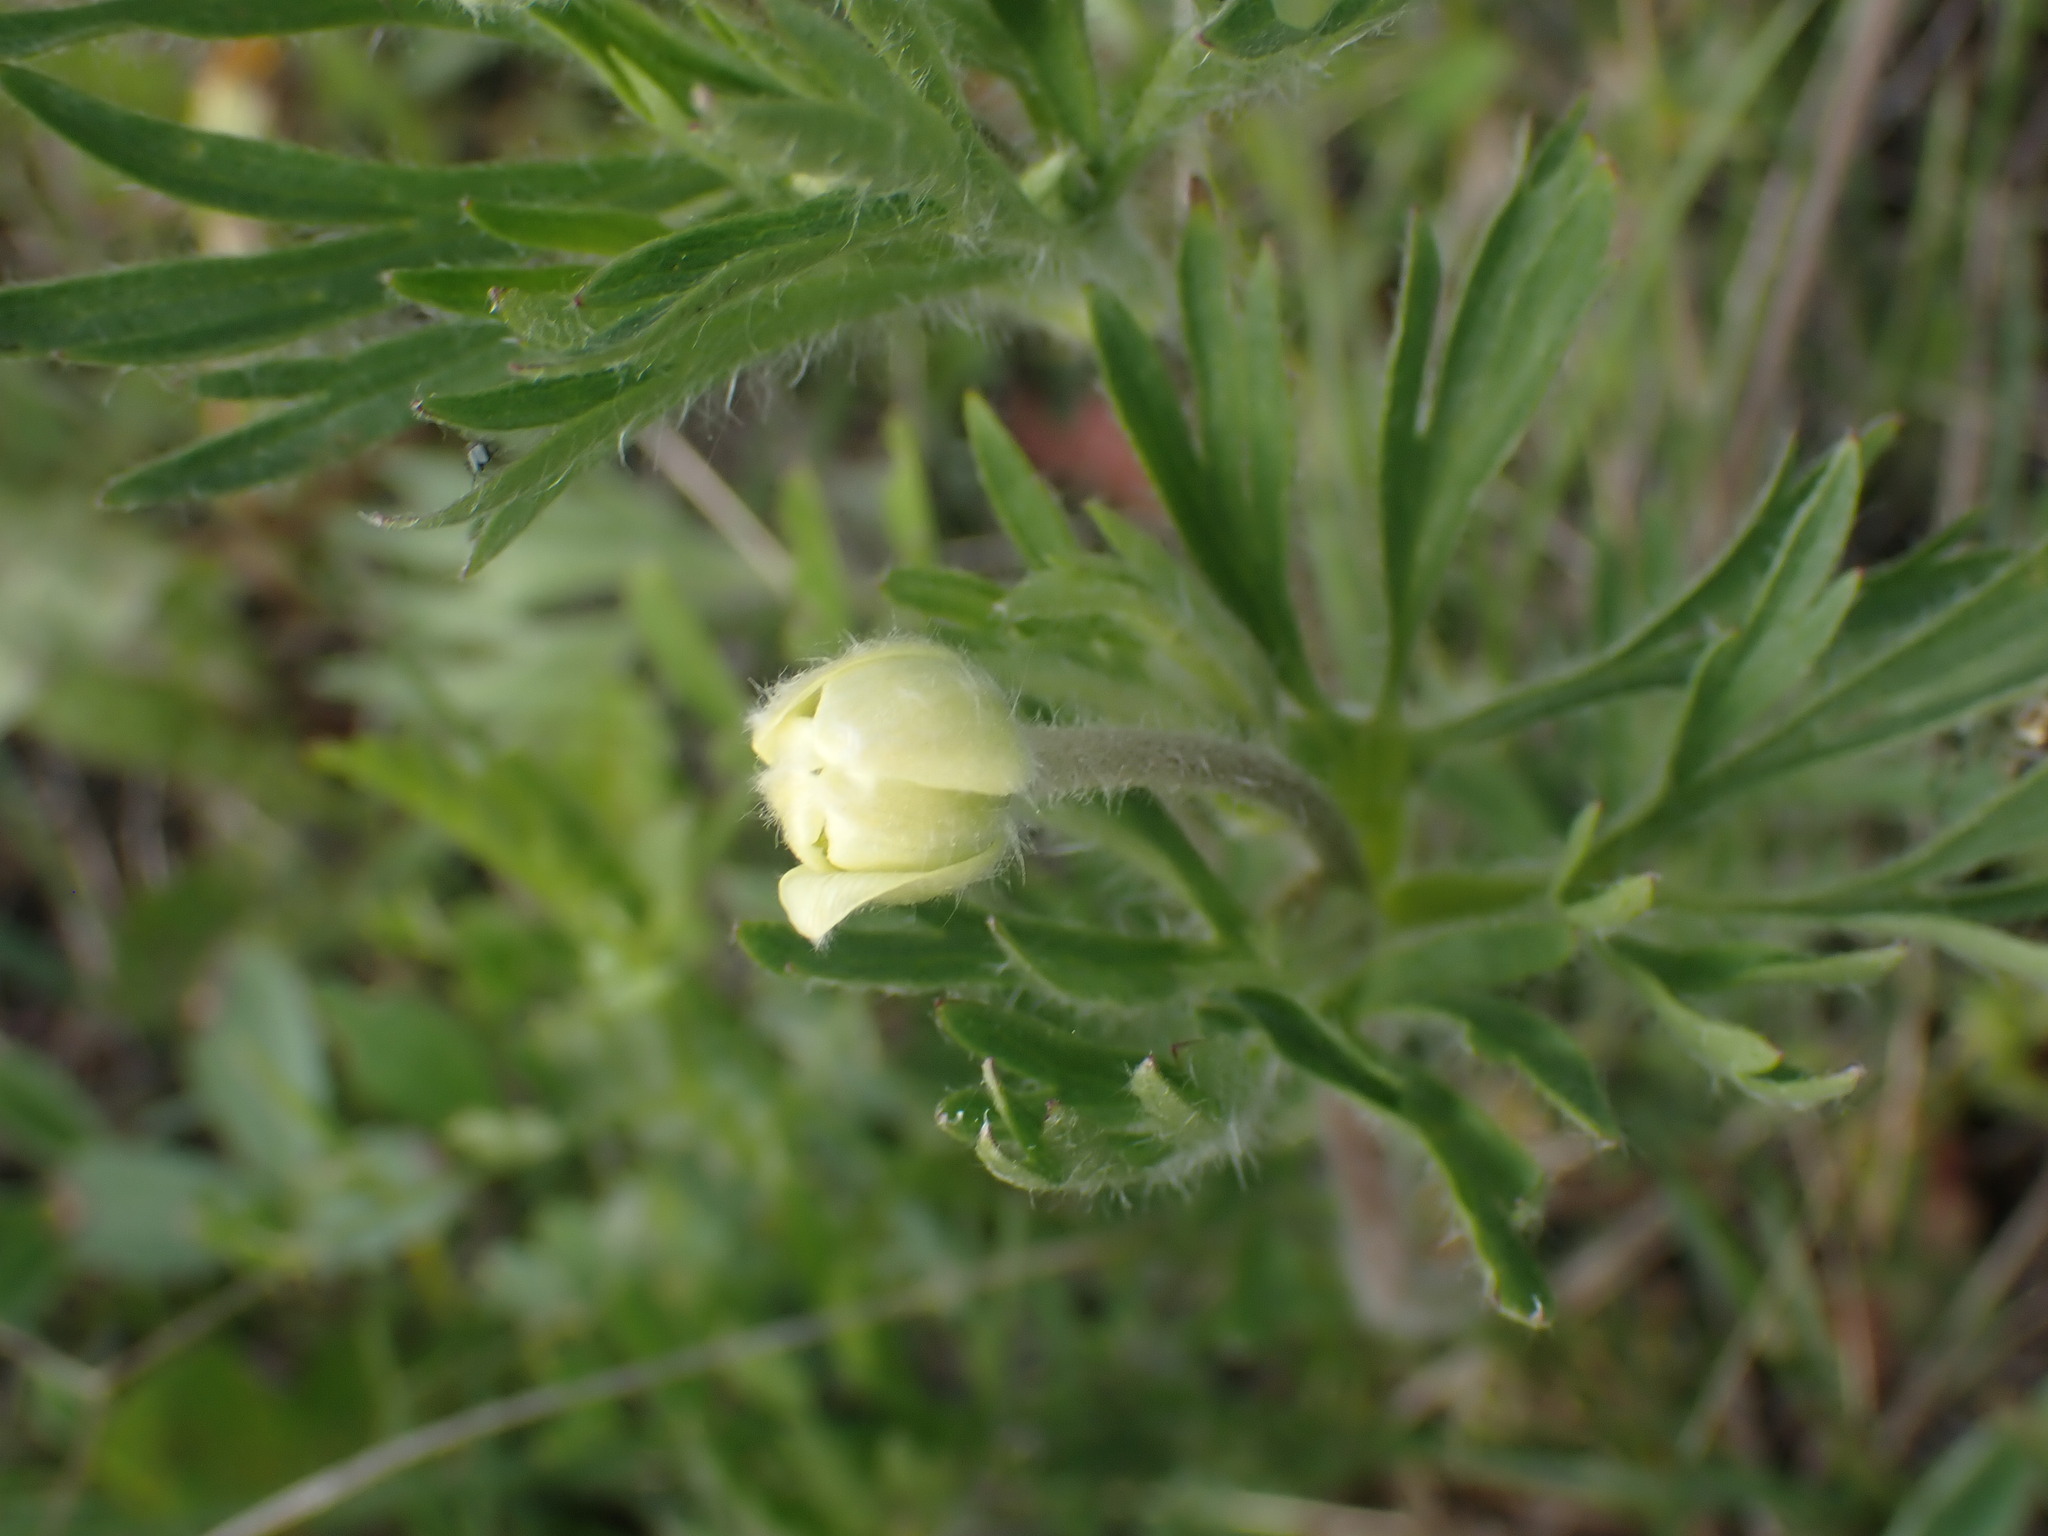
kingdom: Plantae
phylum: Tracheophyta
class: Magnoliopsida
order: Ranunculales
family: Ranunculaceae
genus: Anemone
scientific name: Anemone multifida
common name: Bird's-foot anemone
